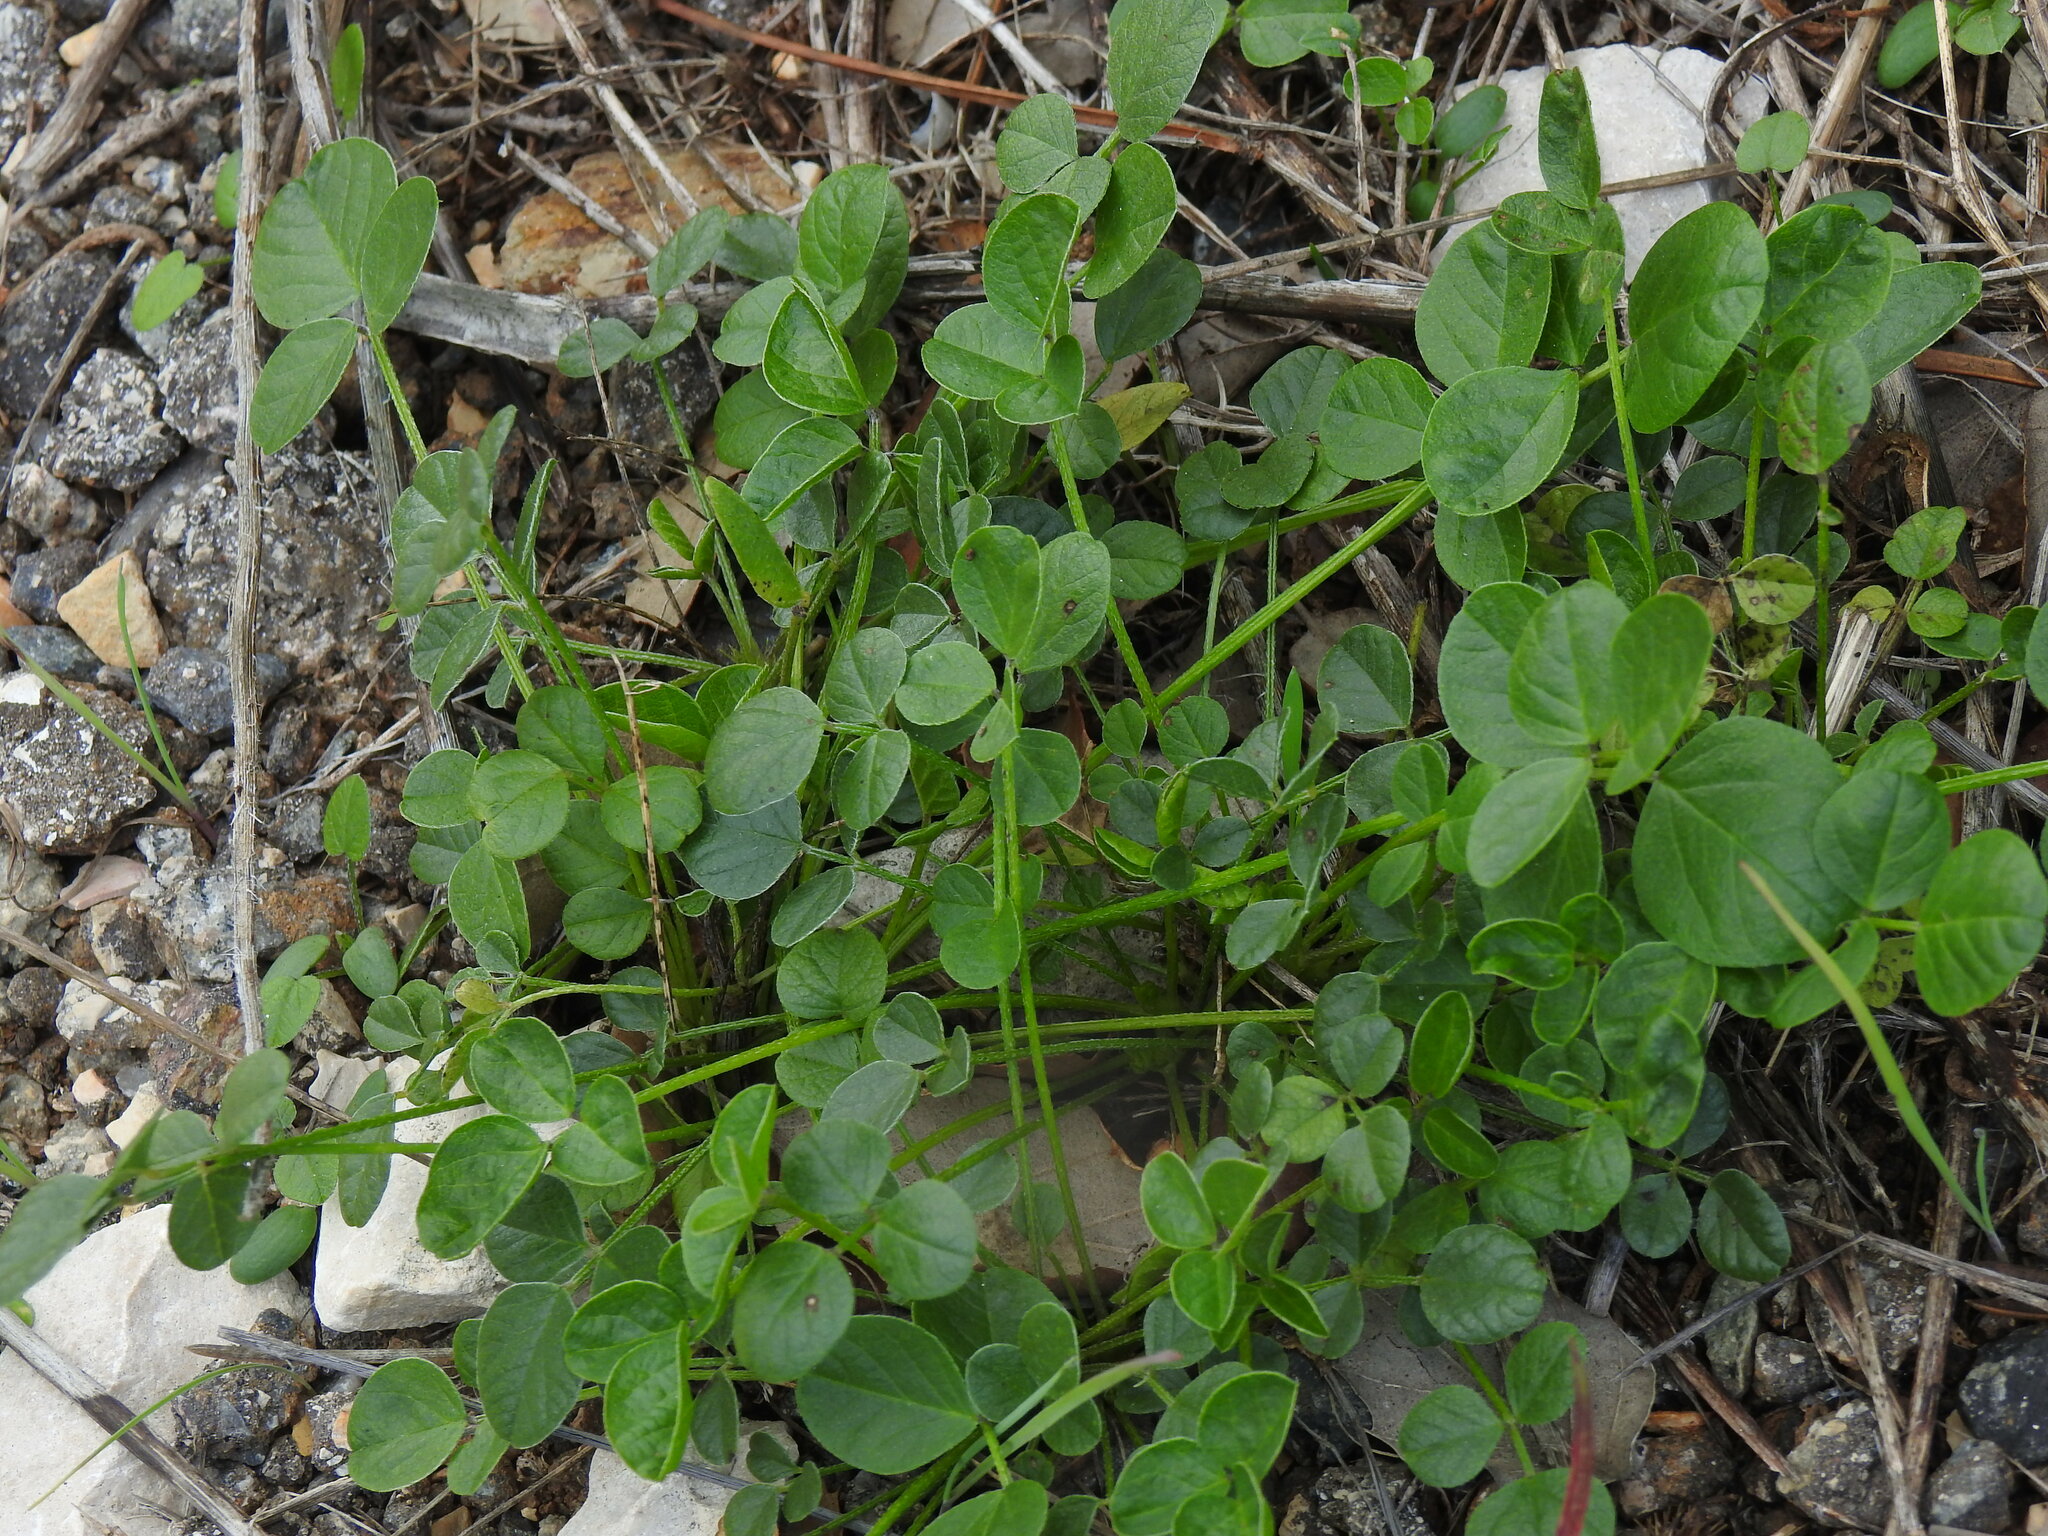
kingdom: Plantae
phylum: Tracheophyta
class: Magnoliopsida
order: Fabales
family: Fabaceae
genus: Bituminaria
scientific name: Bituminaria bituminosa
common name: Arabian pea
